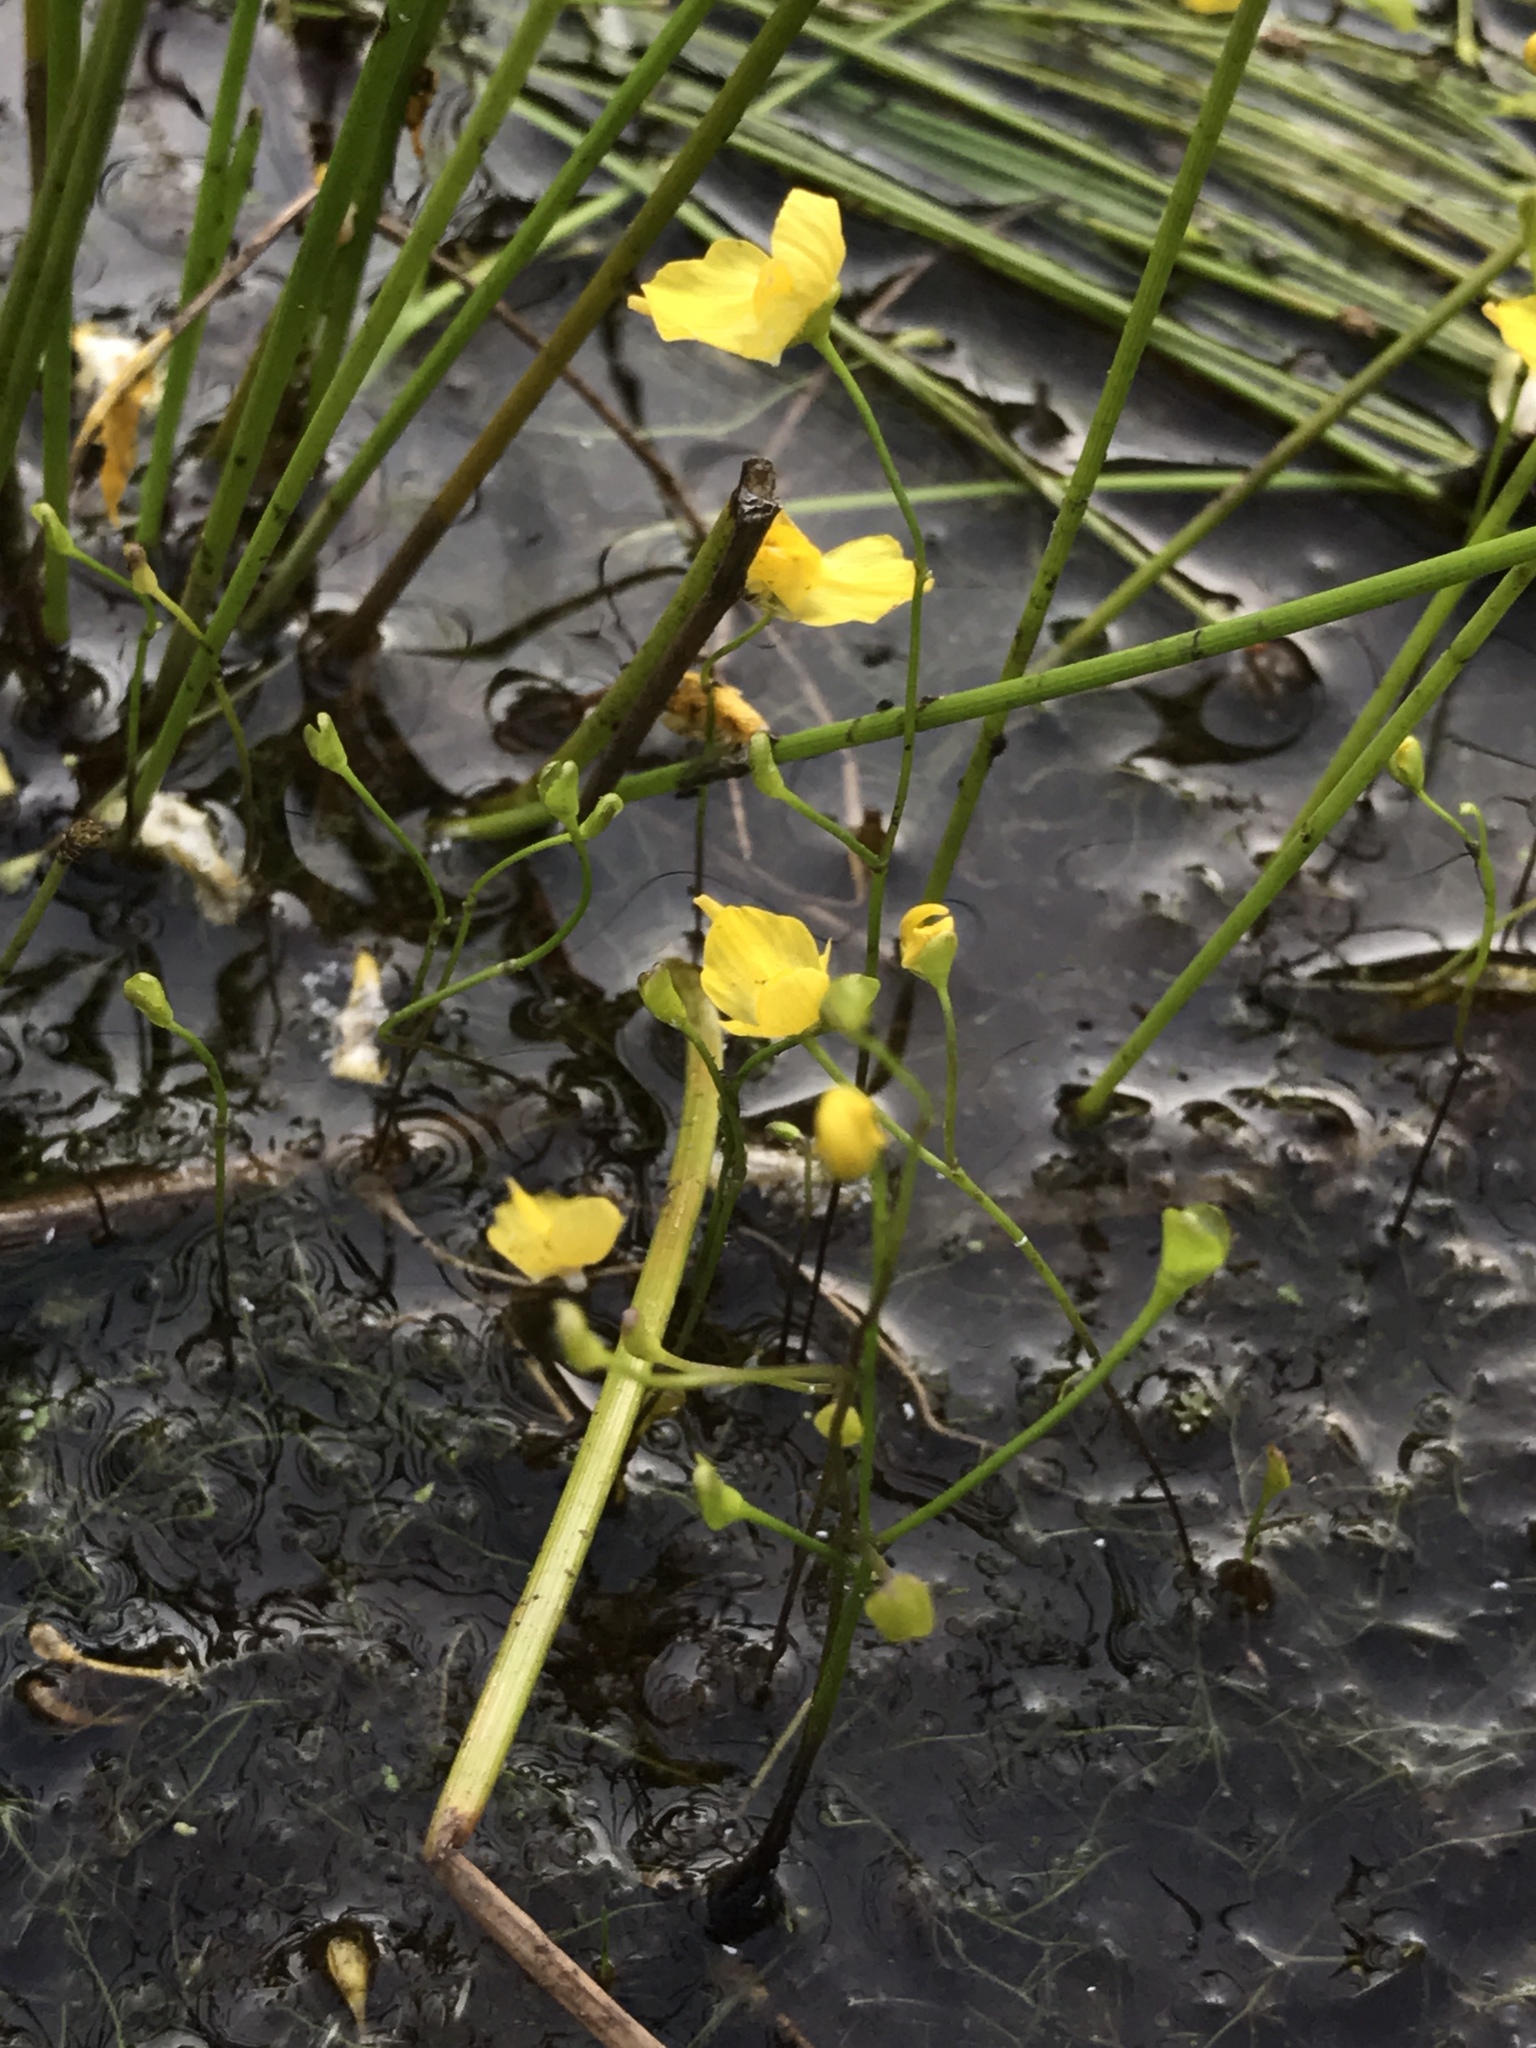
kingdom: Plantae
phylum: Tracheophyta
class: Magnoliopsida
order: Lamiales
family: Lentibulariaceae
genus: Utricularia
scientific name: Utricularia gibba
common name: Humped bladderwort
